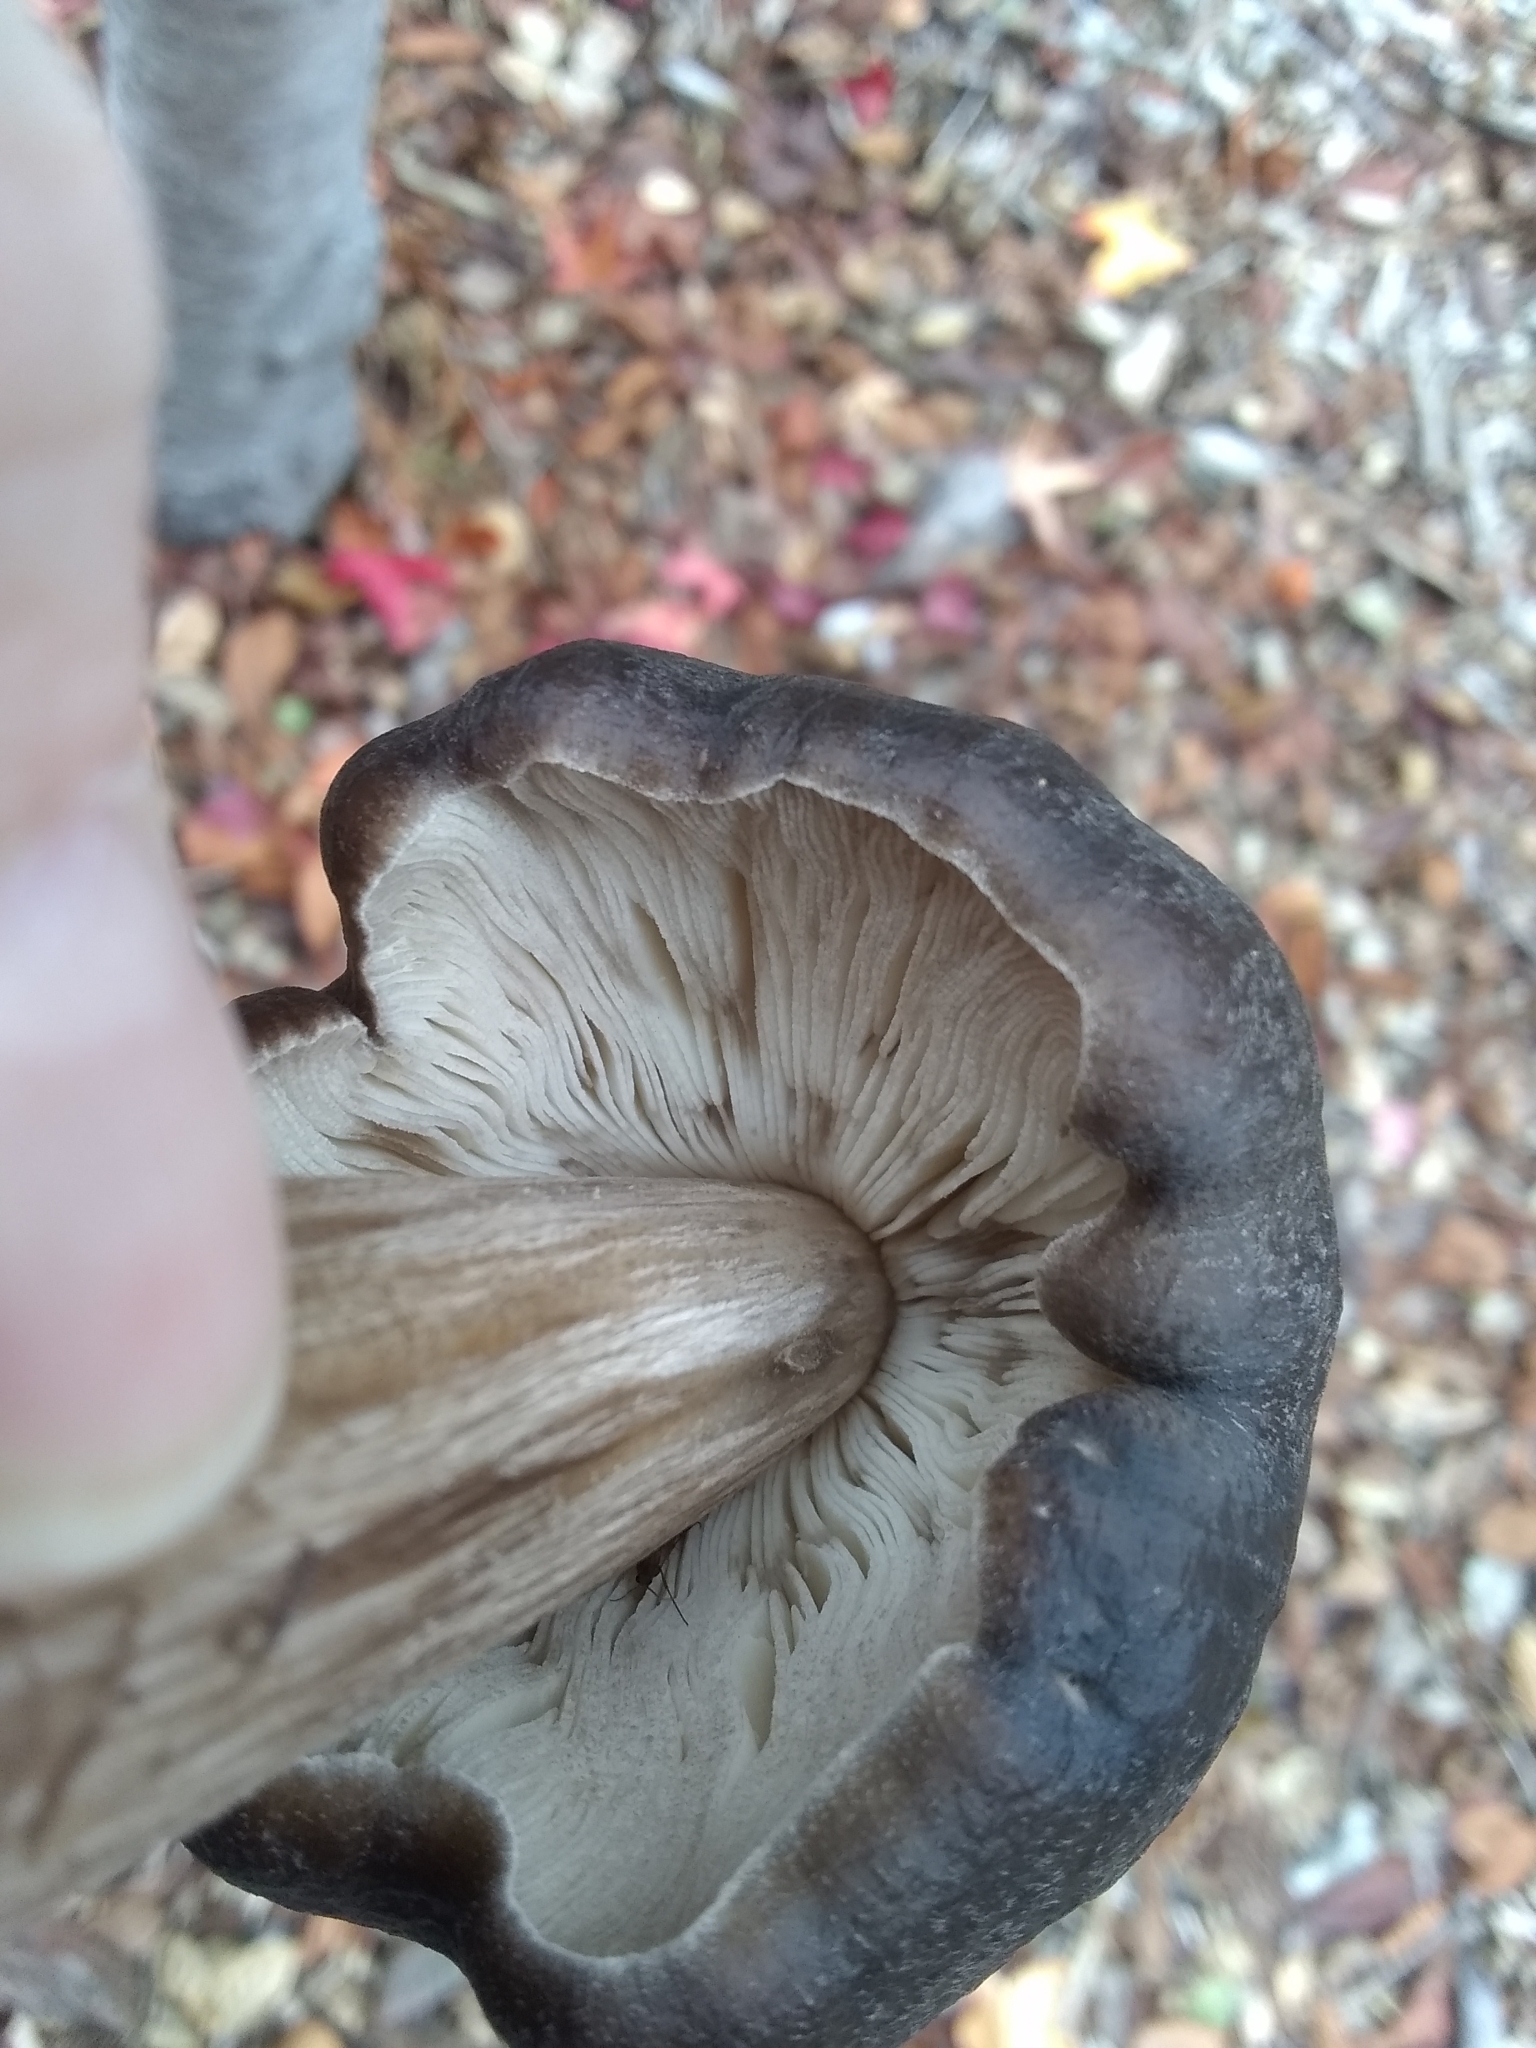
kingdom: Fungi
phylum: Basidiomycota
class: Agaricomycetes
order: Agaricales
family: Pluteaceae
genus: Pluteus
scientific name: Pluteus exilis
